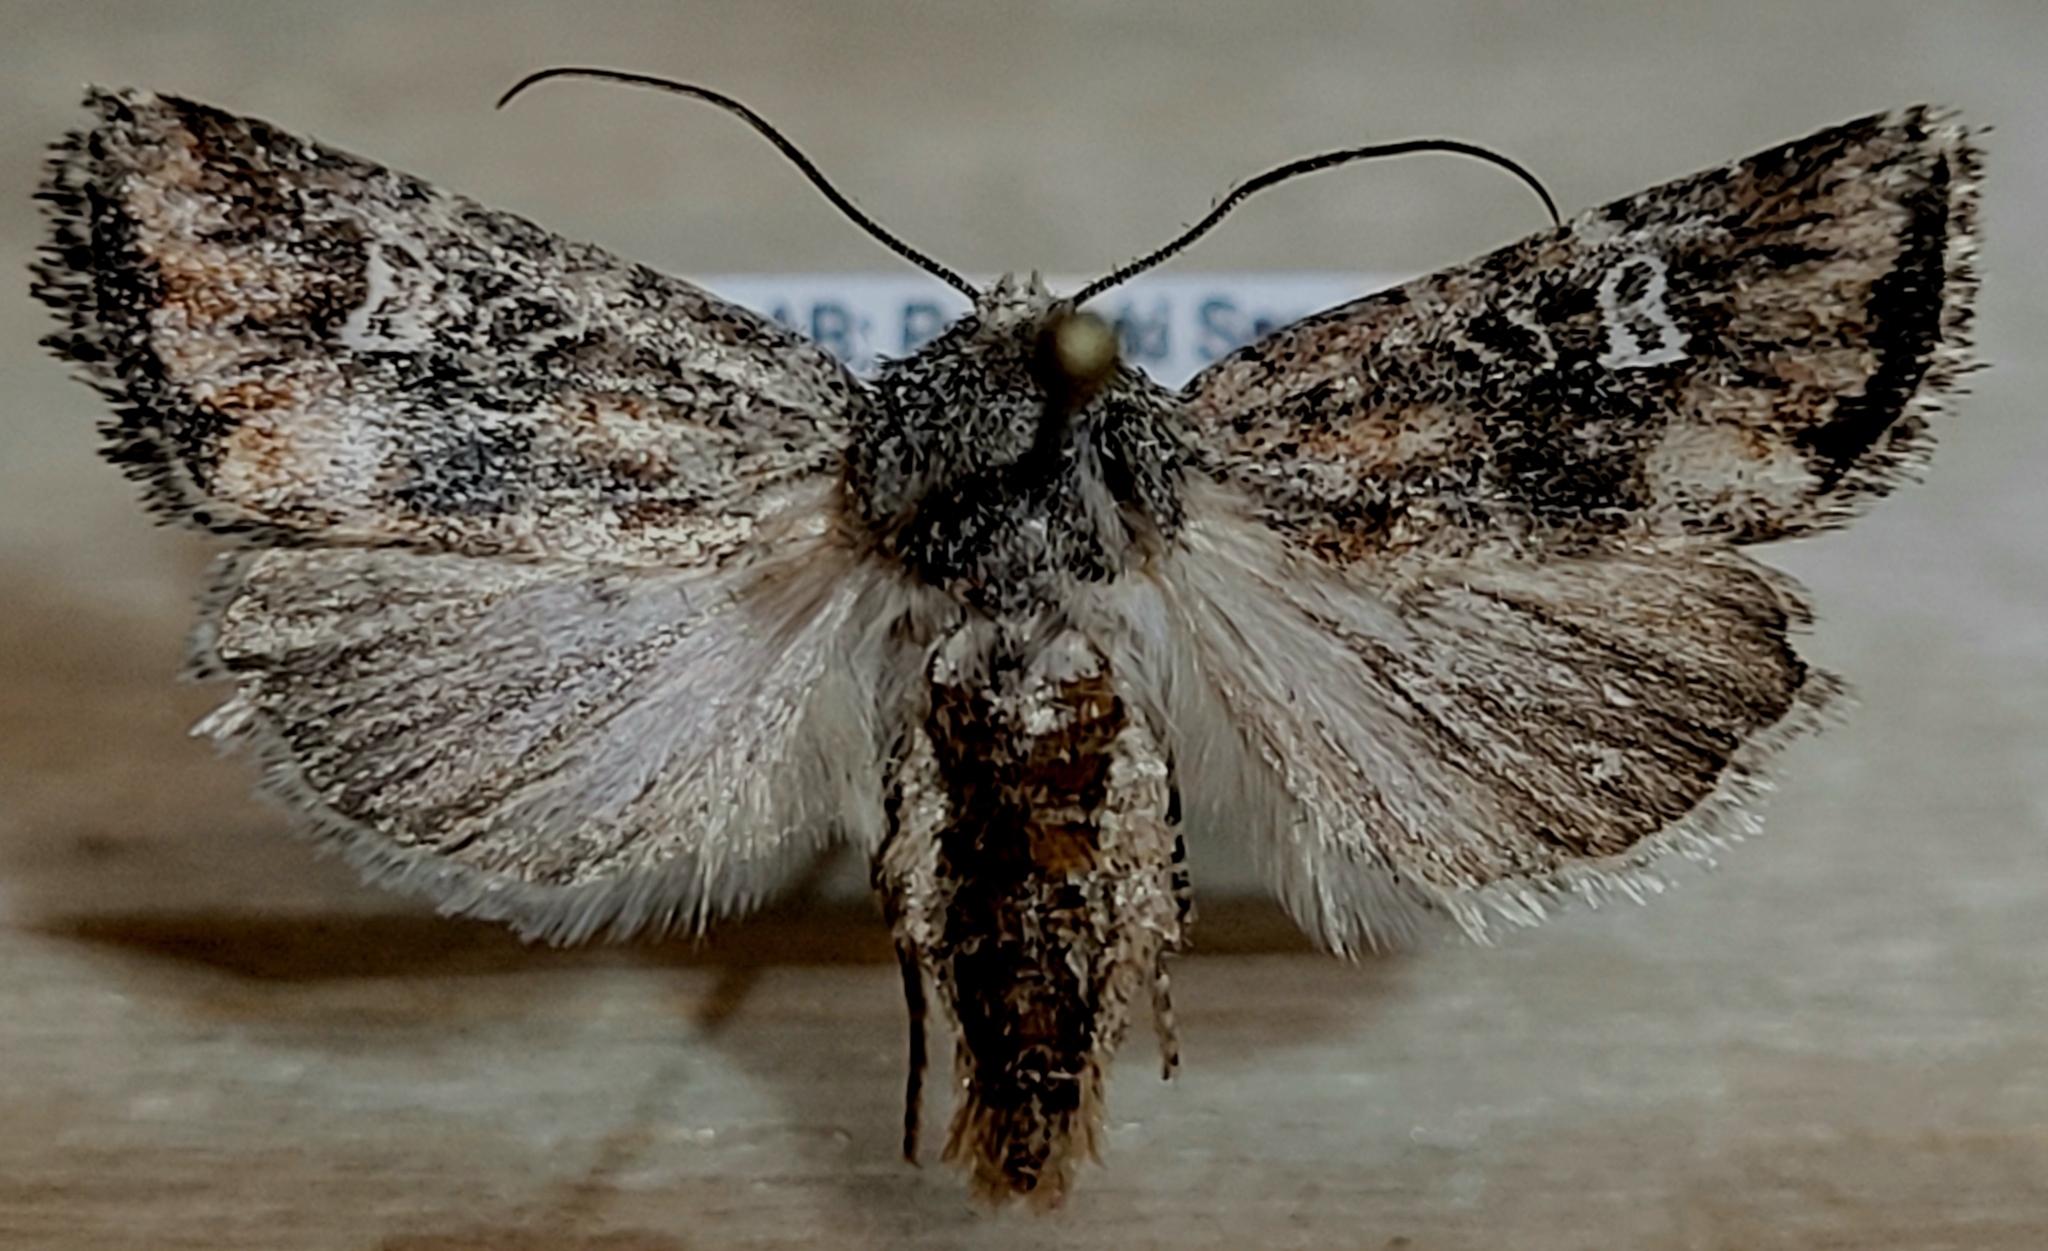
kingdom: Animalia
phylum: Arthropoda
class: Insecta
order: Lepidoptera
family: Noctuidae
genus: Lacinipolia
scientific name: Lacinipolia stricta
